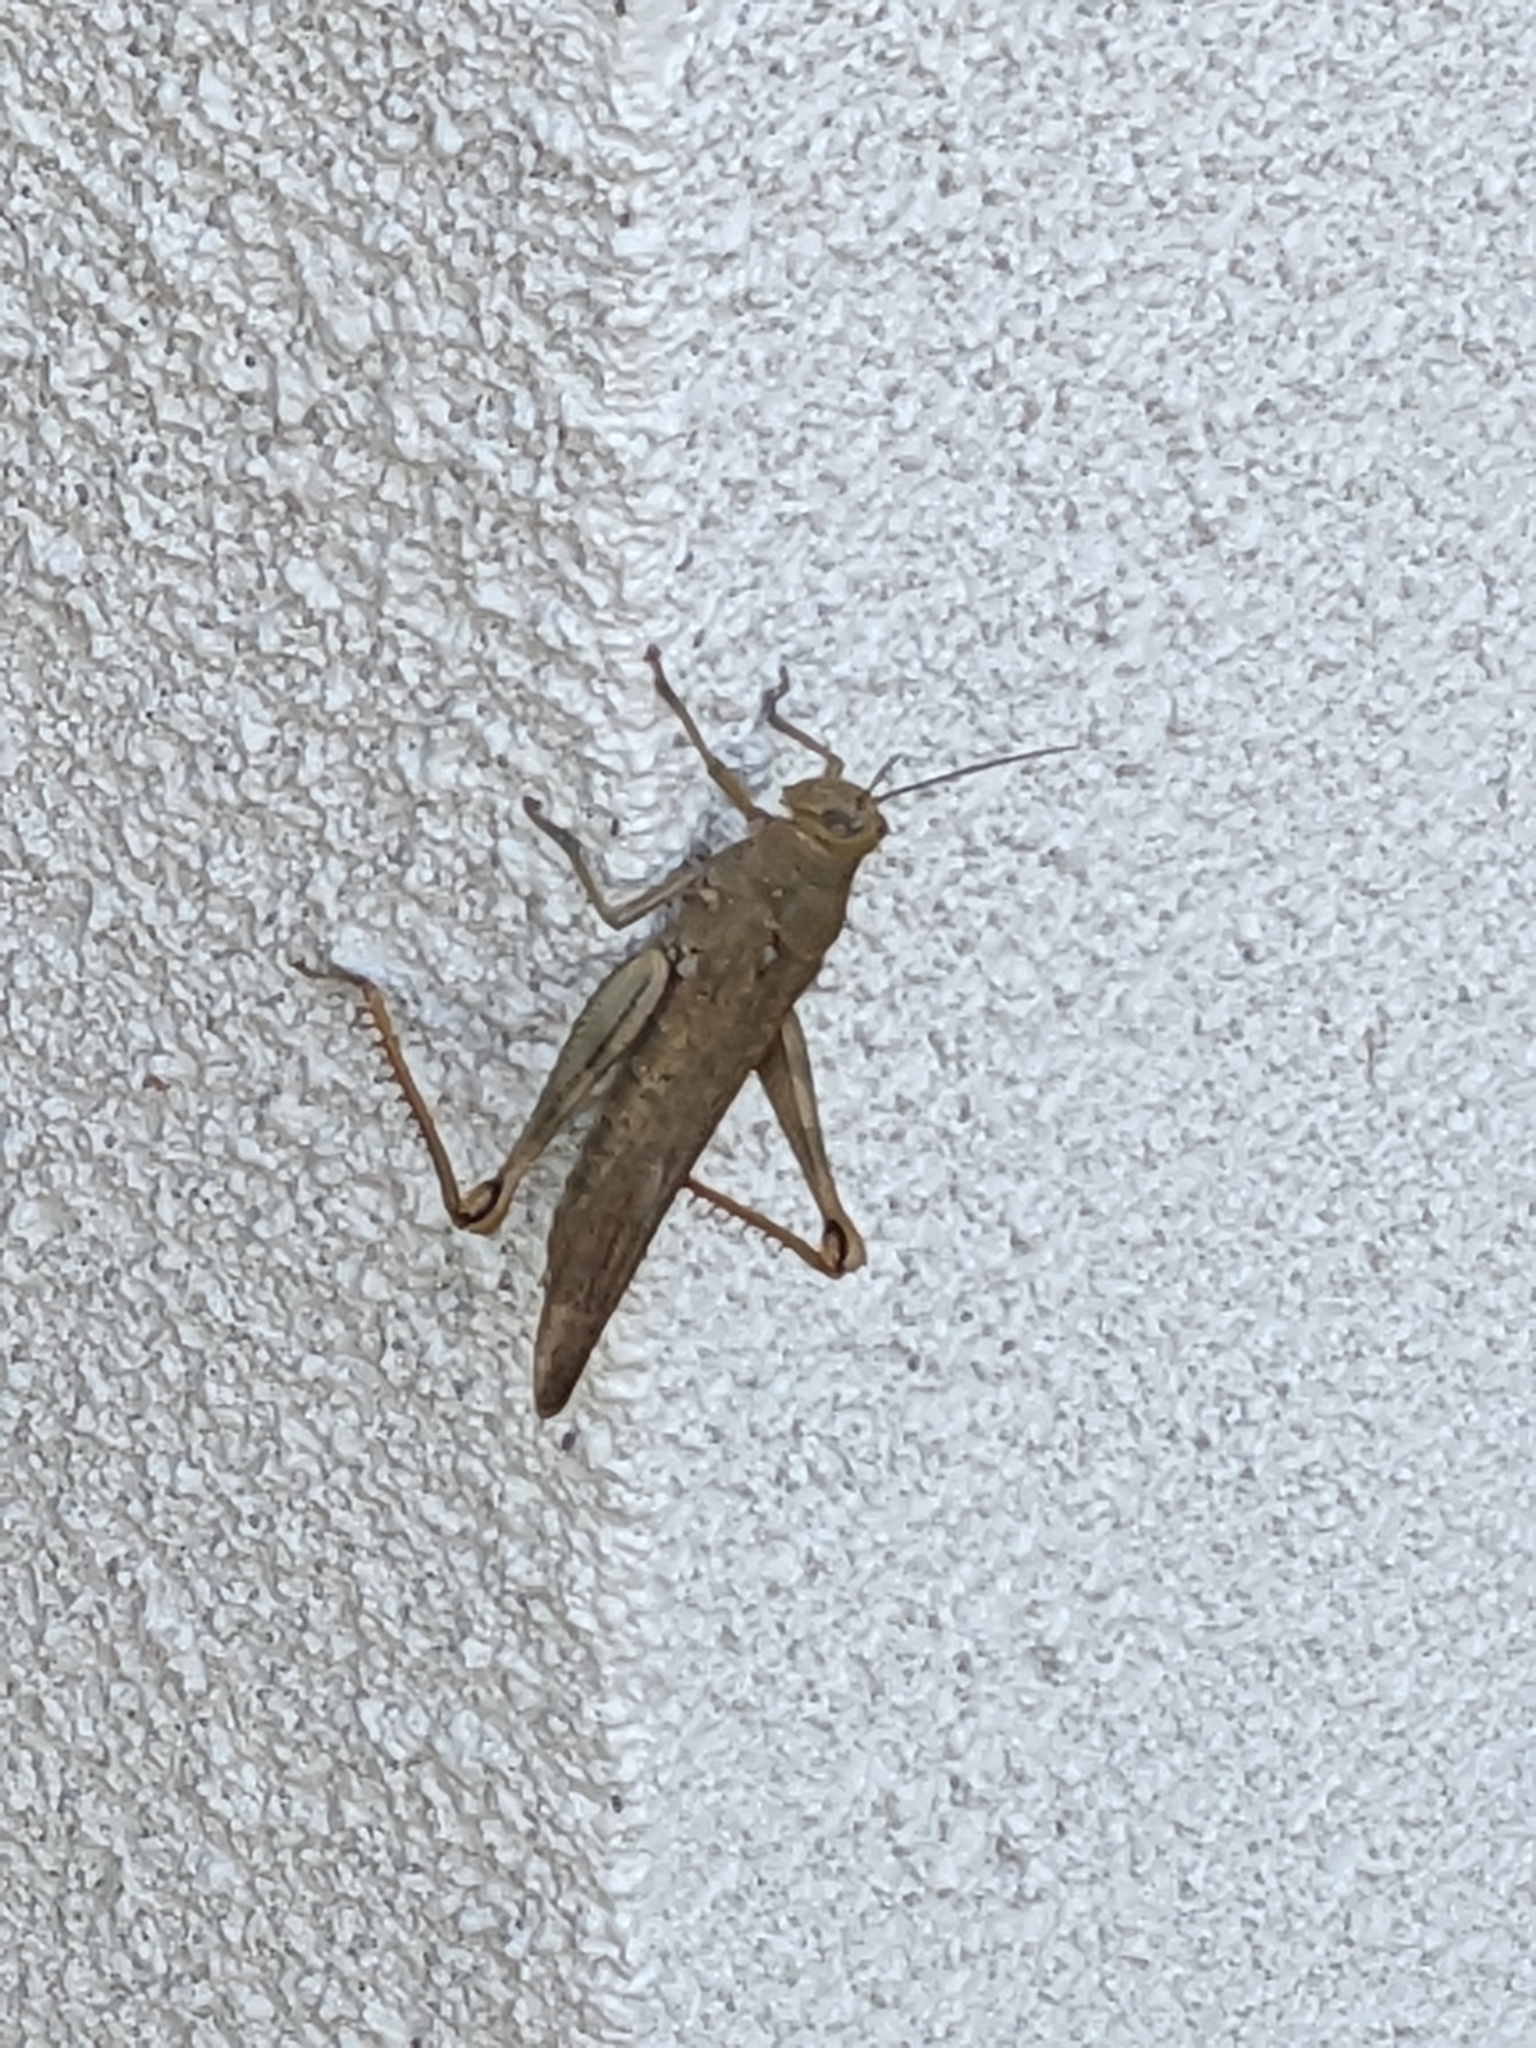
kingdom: Animalia
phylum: Arthropoda
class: Insecta
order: Orthoptera
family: Acrididae
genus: Valanga
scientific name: Valanga irregularis
